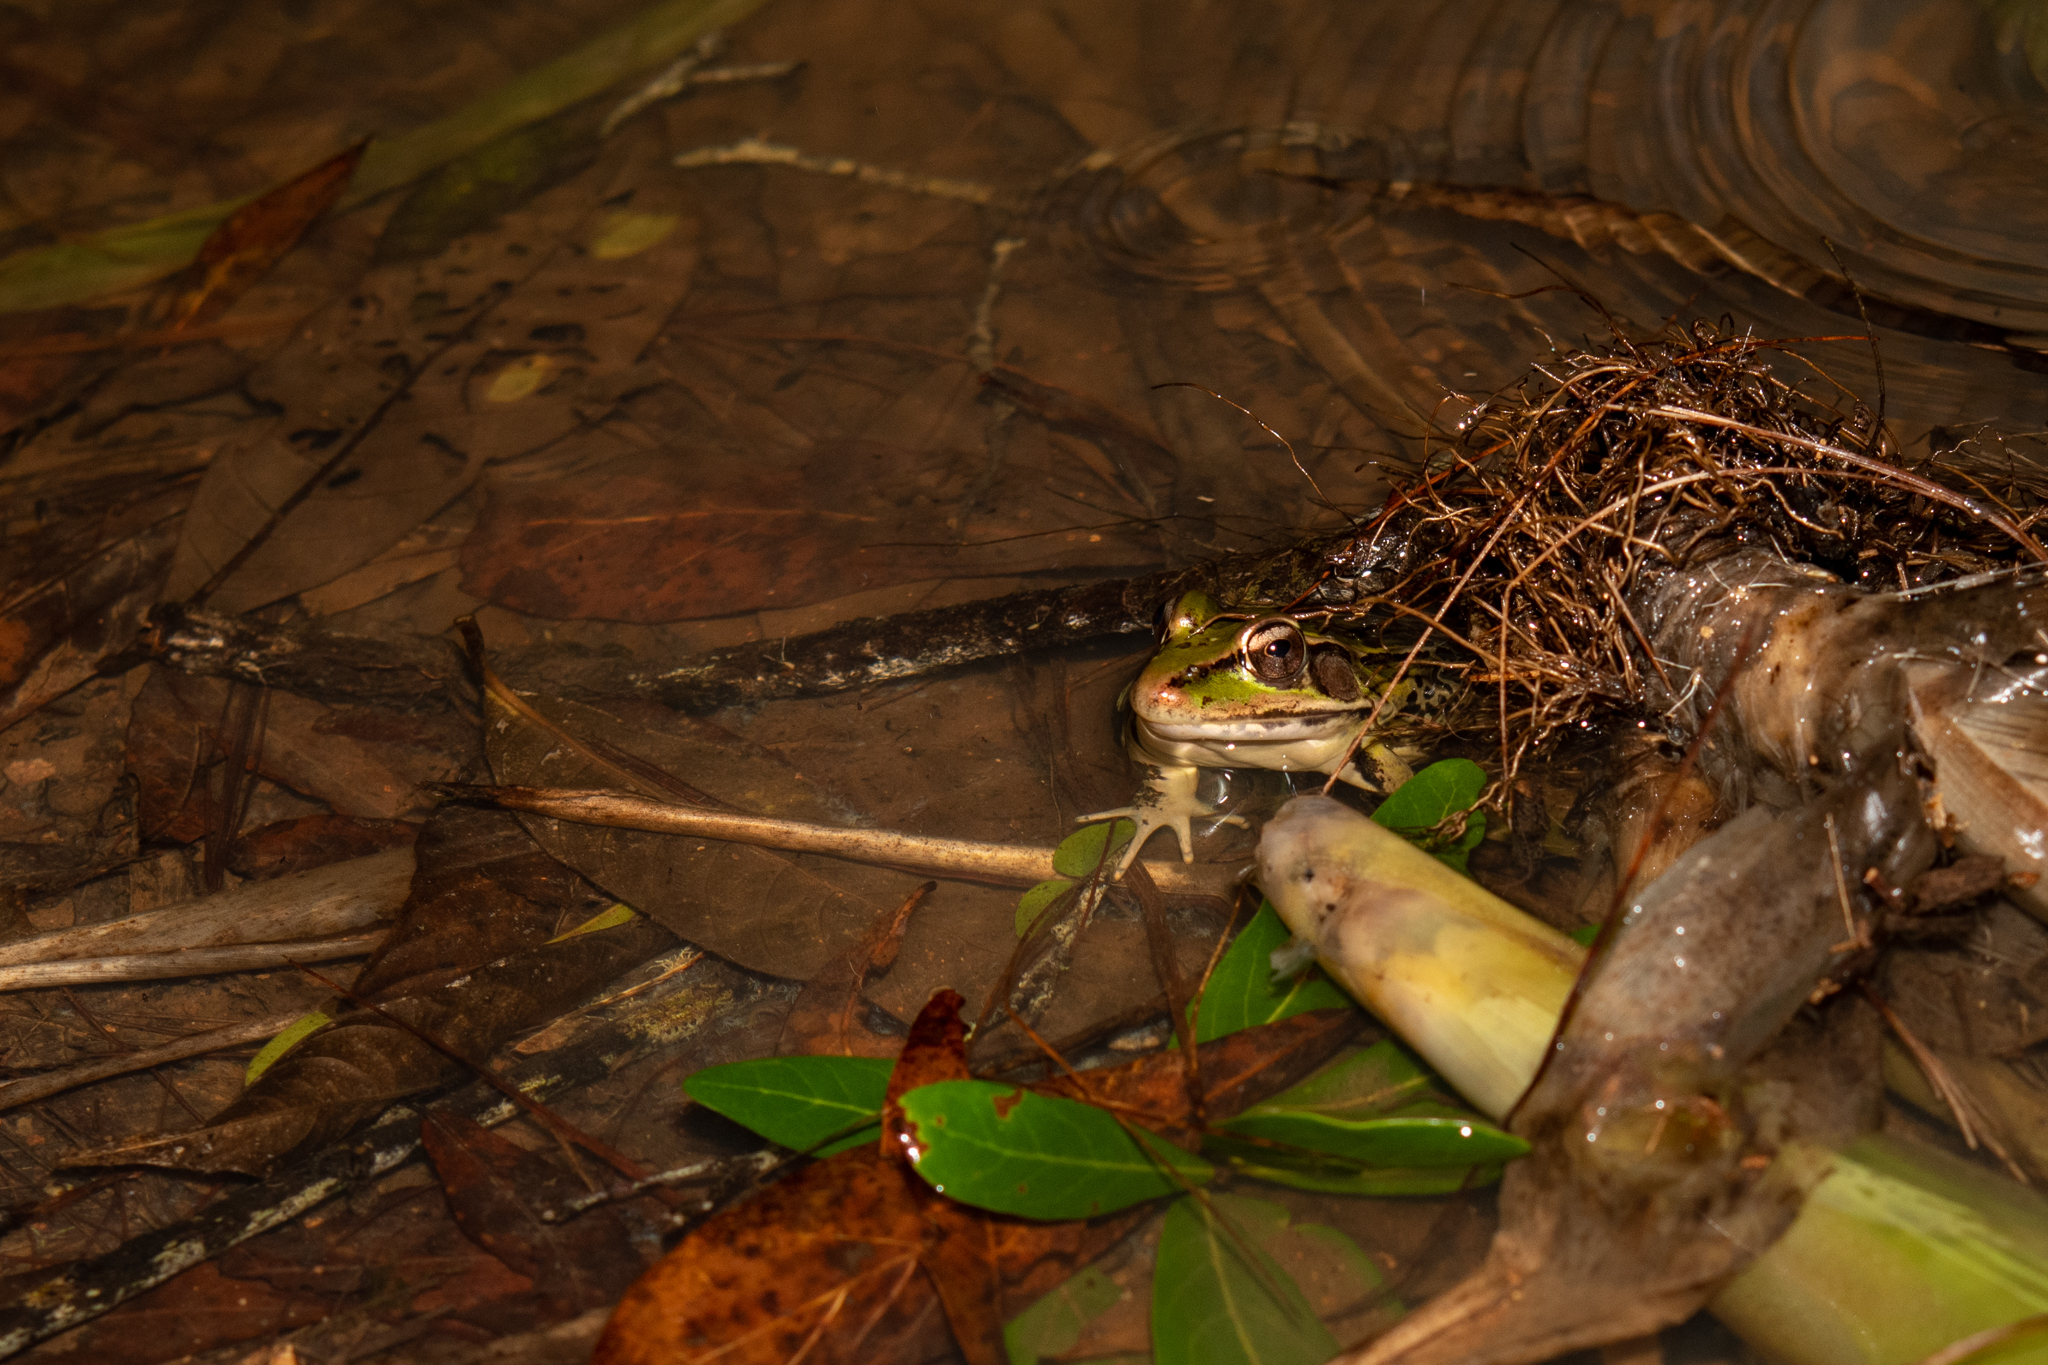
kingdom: Animalia
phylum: Chordata
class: Amphibia
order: Anura
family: Ranidae
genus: Lithobates
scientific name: Lithobates lenca
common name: Lenca leopard frog
